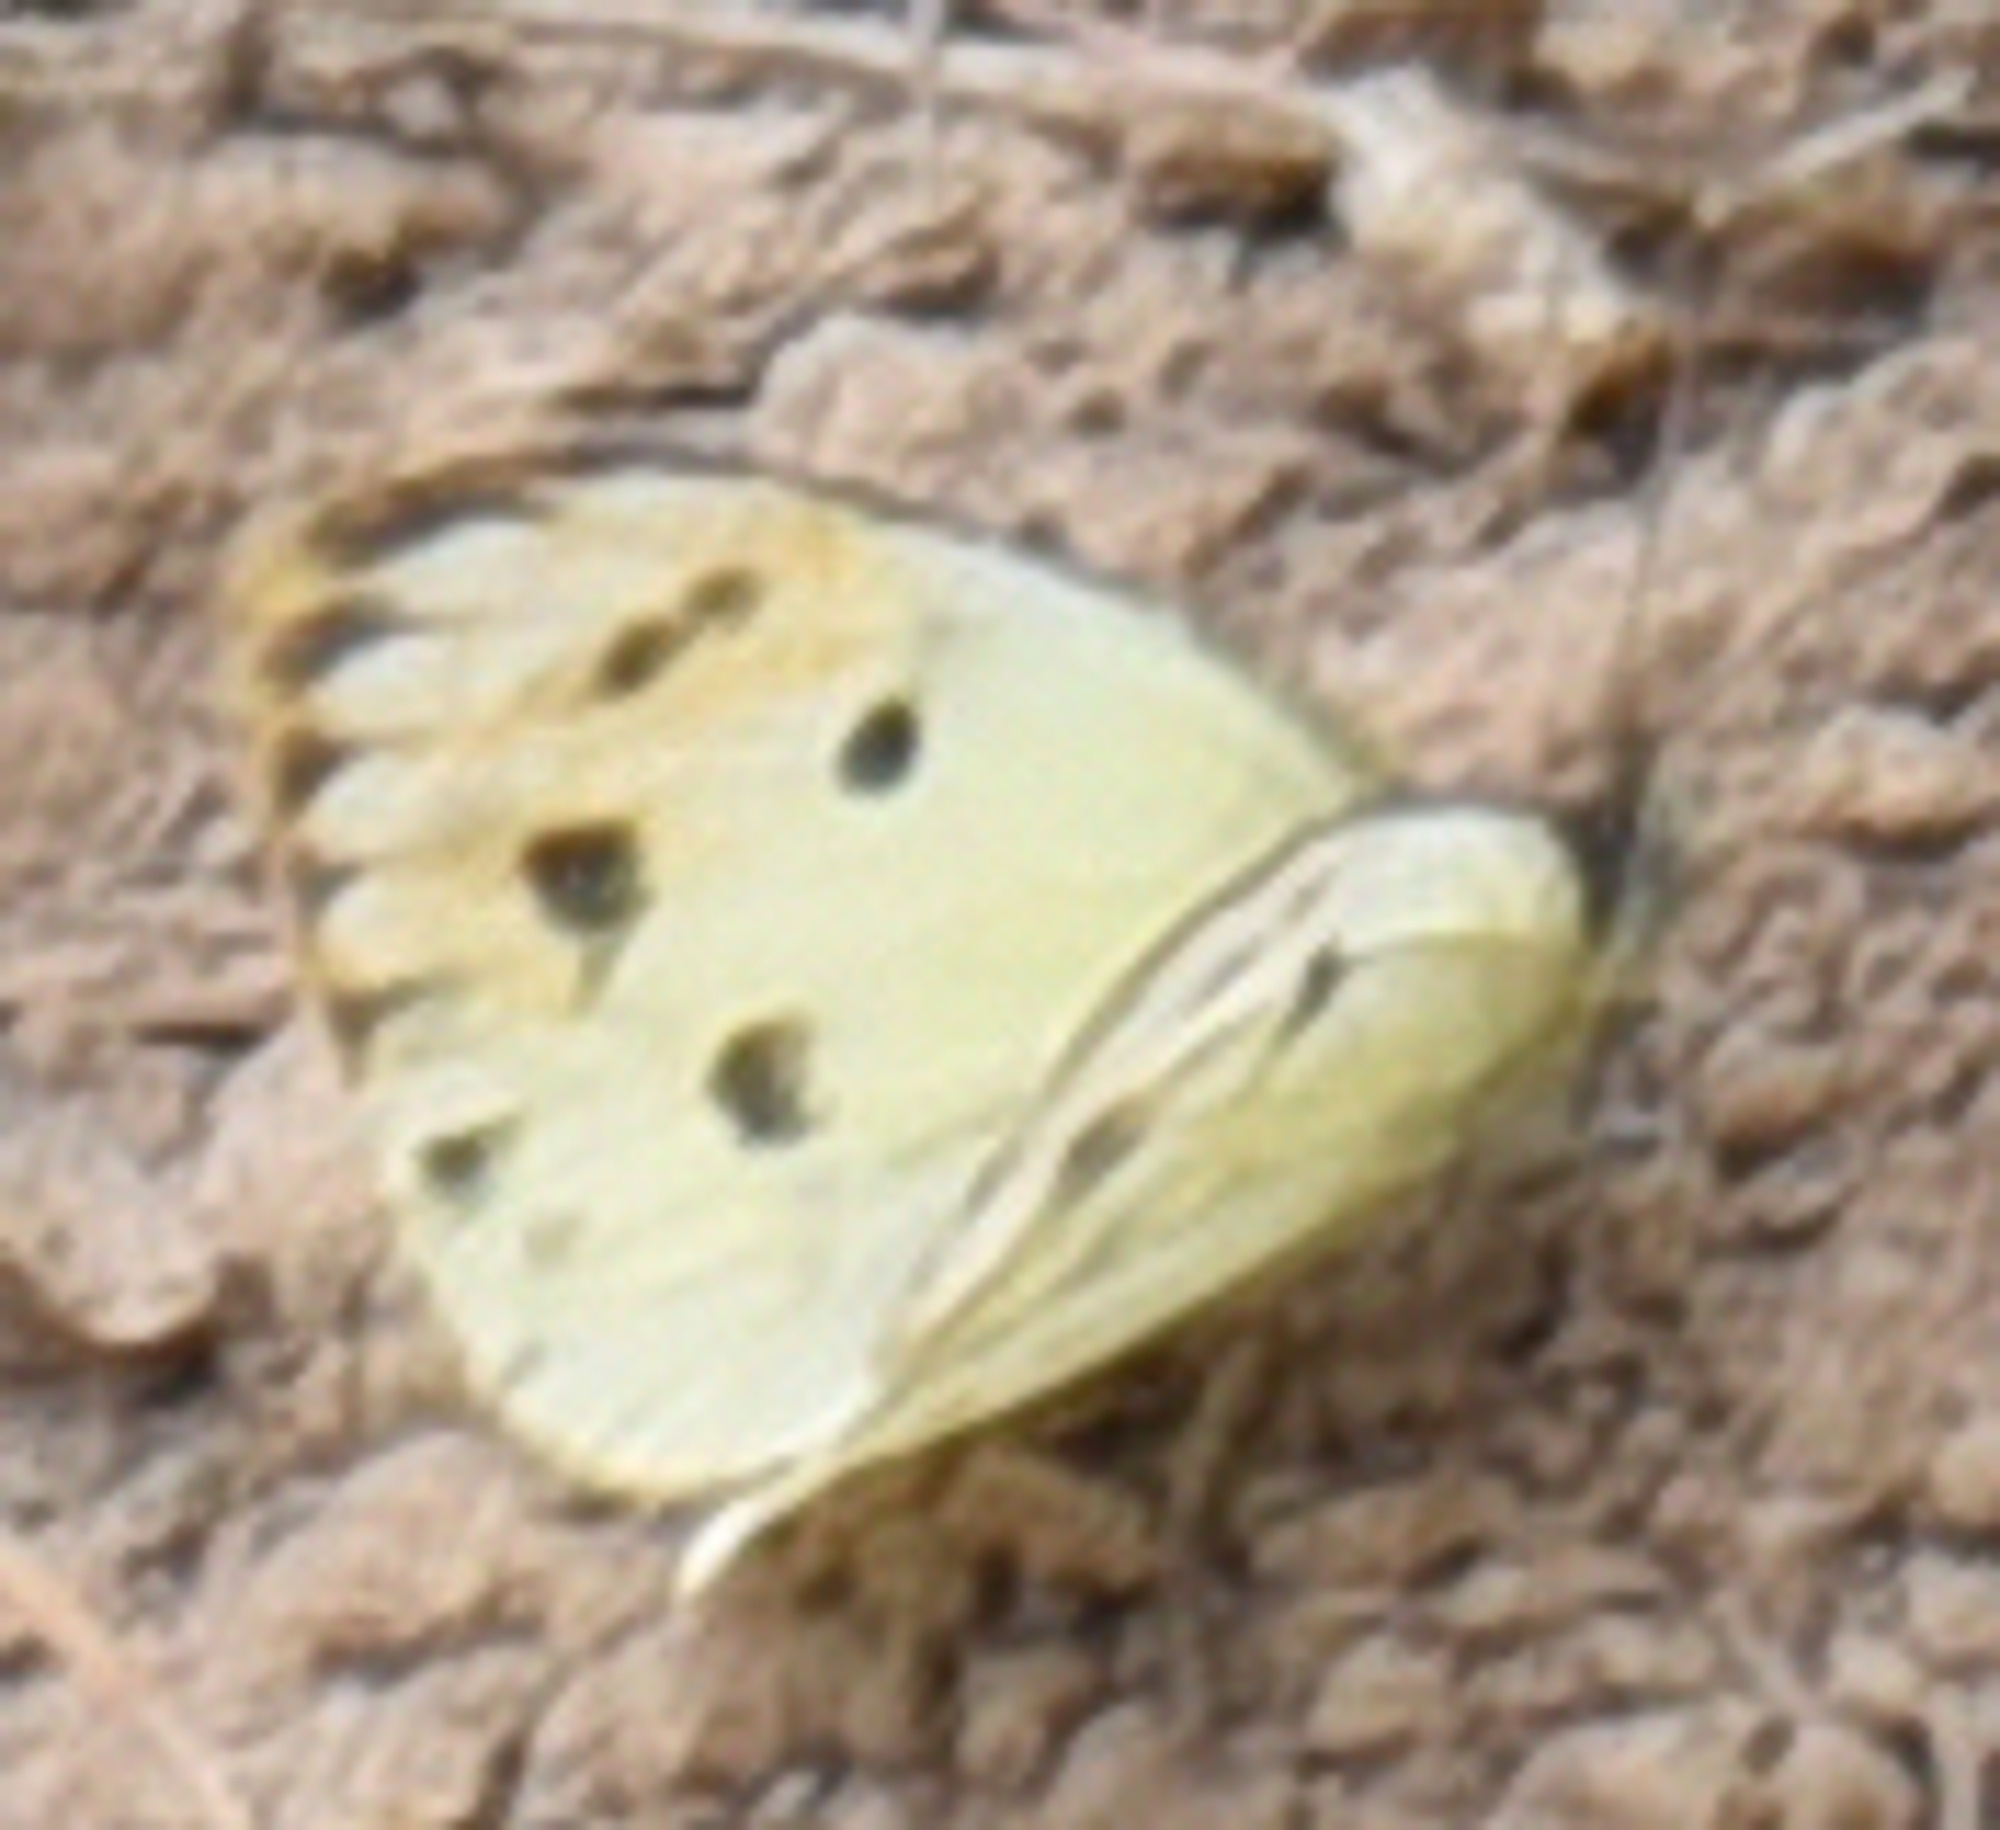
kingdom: Animalia
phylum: Arthropoda
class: Insecta
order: Lepidoptera
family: Pieridae
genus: Colotis
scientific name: Colotis auxo
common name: Sulphur orange tip
